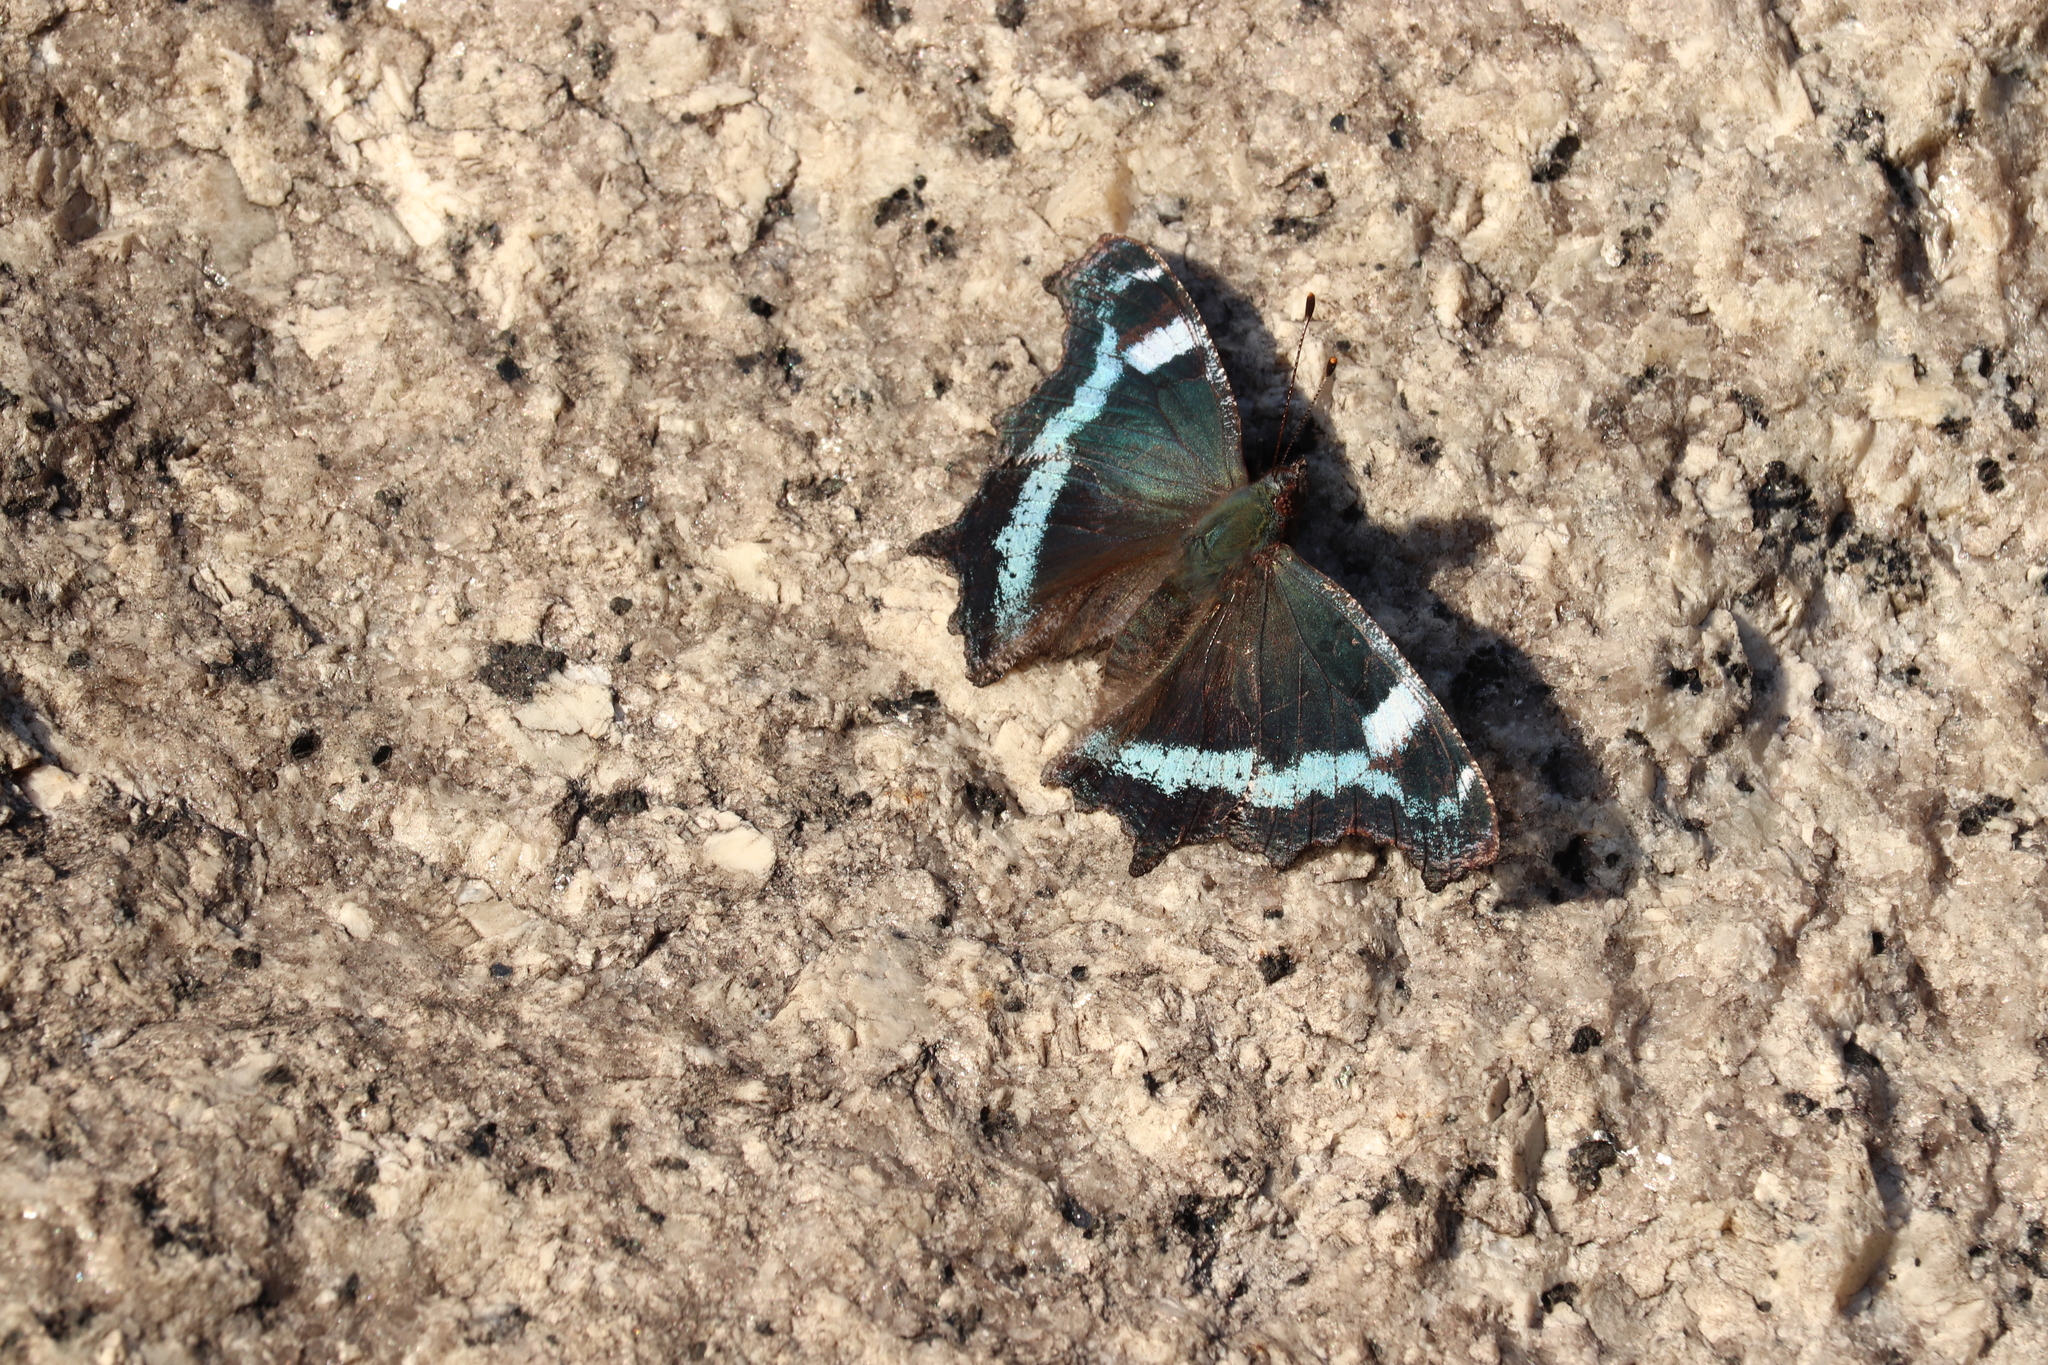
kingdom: Animalia
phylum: Arthropoda
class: Insecta
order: Lepidoptera
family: Nymphalidae
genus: Vanessa
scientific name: Vanessa Kaniska canace
